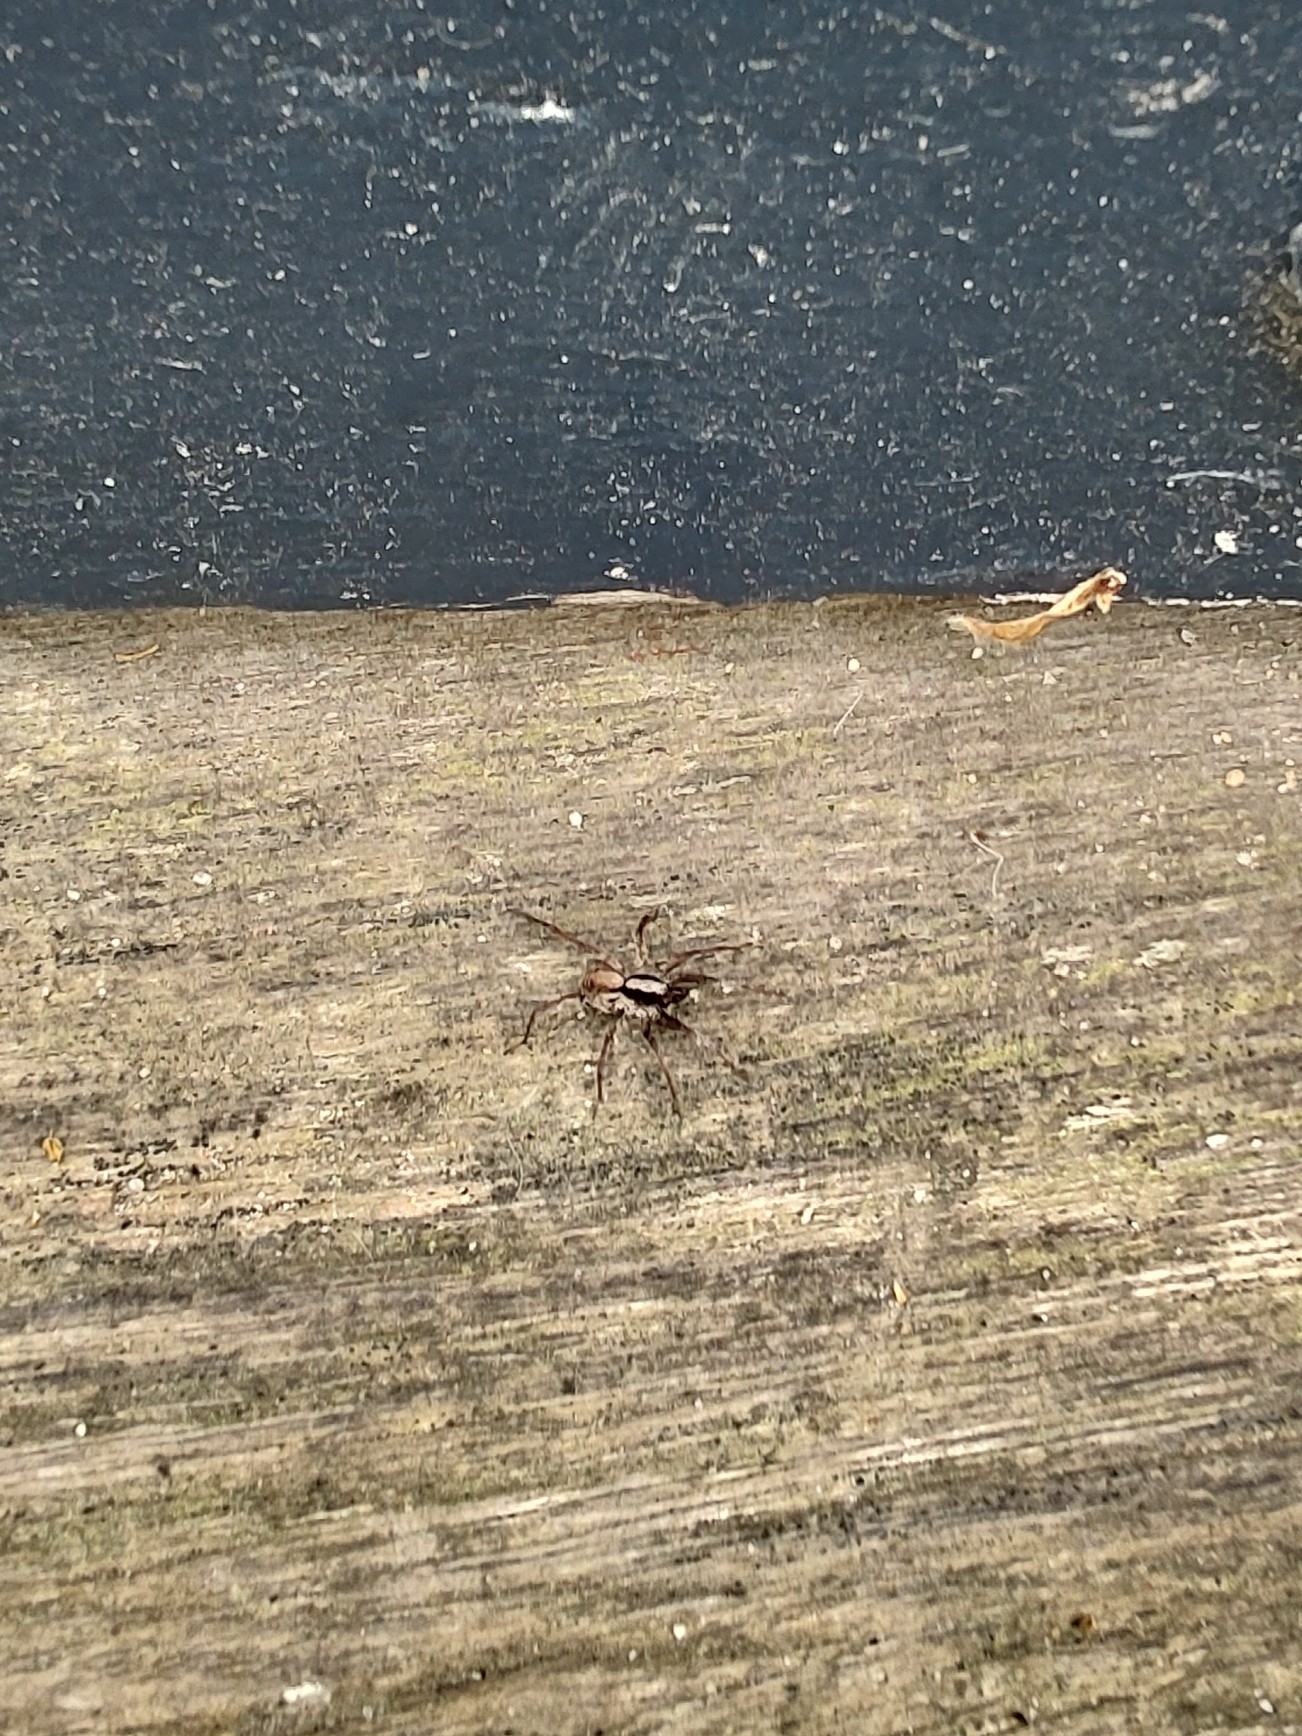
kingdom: Animalia
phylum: Arthropoda
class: Arachnida
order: Araneae
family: Lycosidae
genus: Xerolycosa
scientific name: Xerolycosa nemoralis
